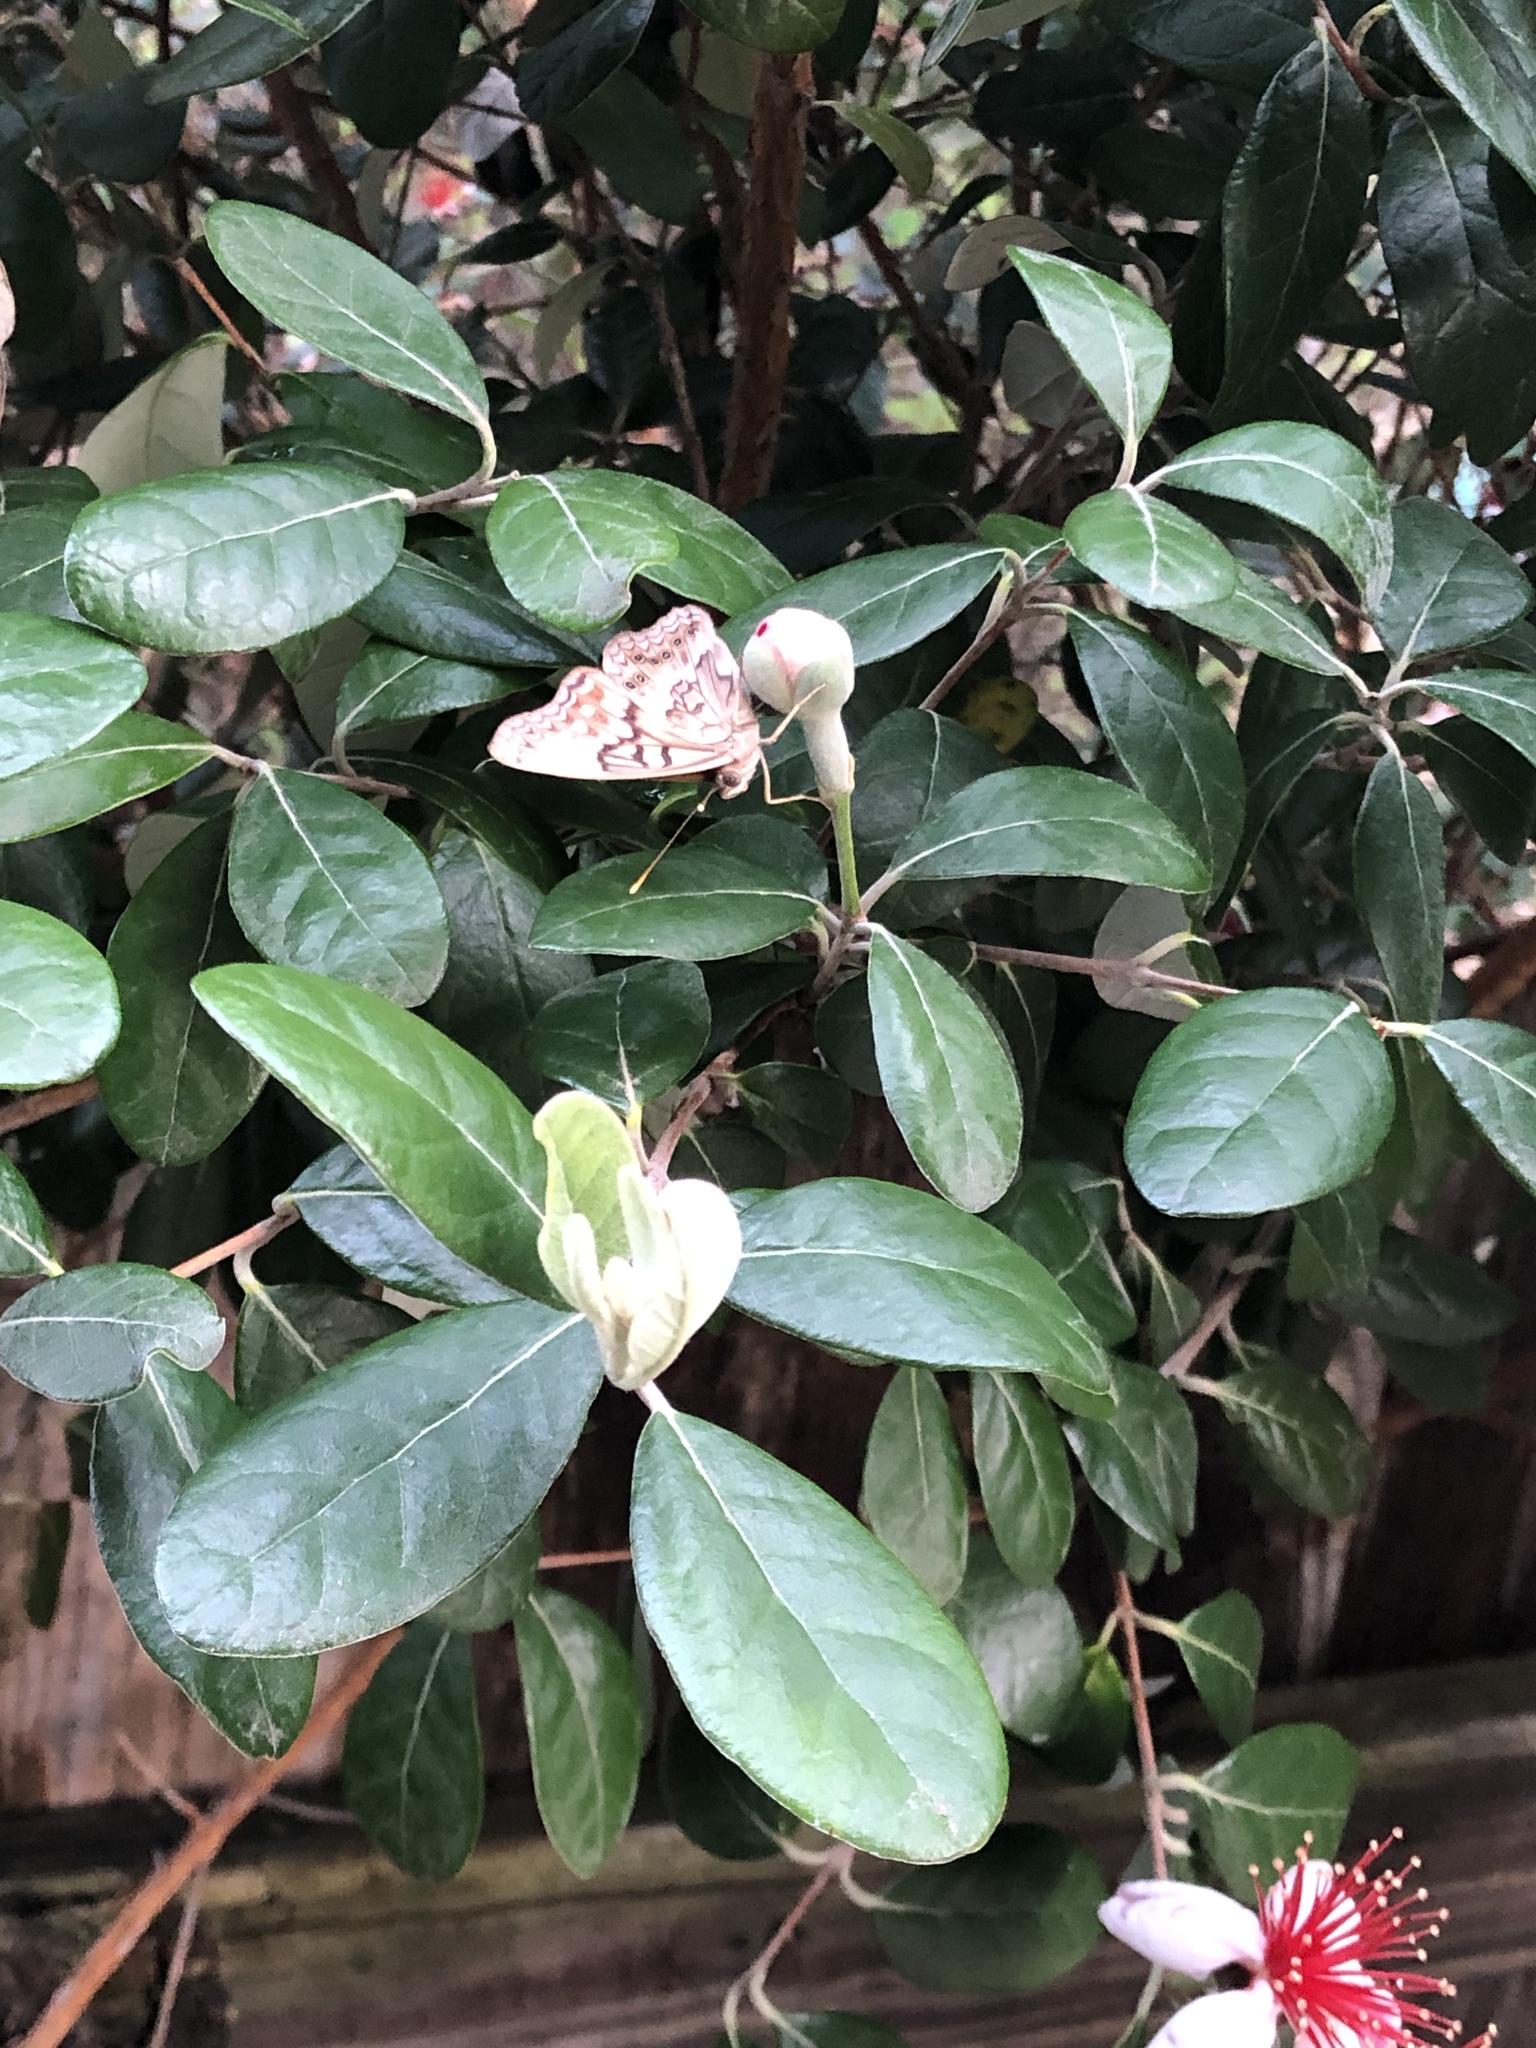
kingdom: Animalia
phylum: Arthropoda
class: Insecta
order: Lepidoptera
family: Nymphalidae
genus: Asterocampa
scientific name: Asterocampa clyton
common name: Tawny emperor
